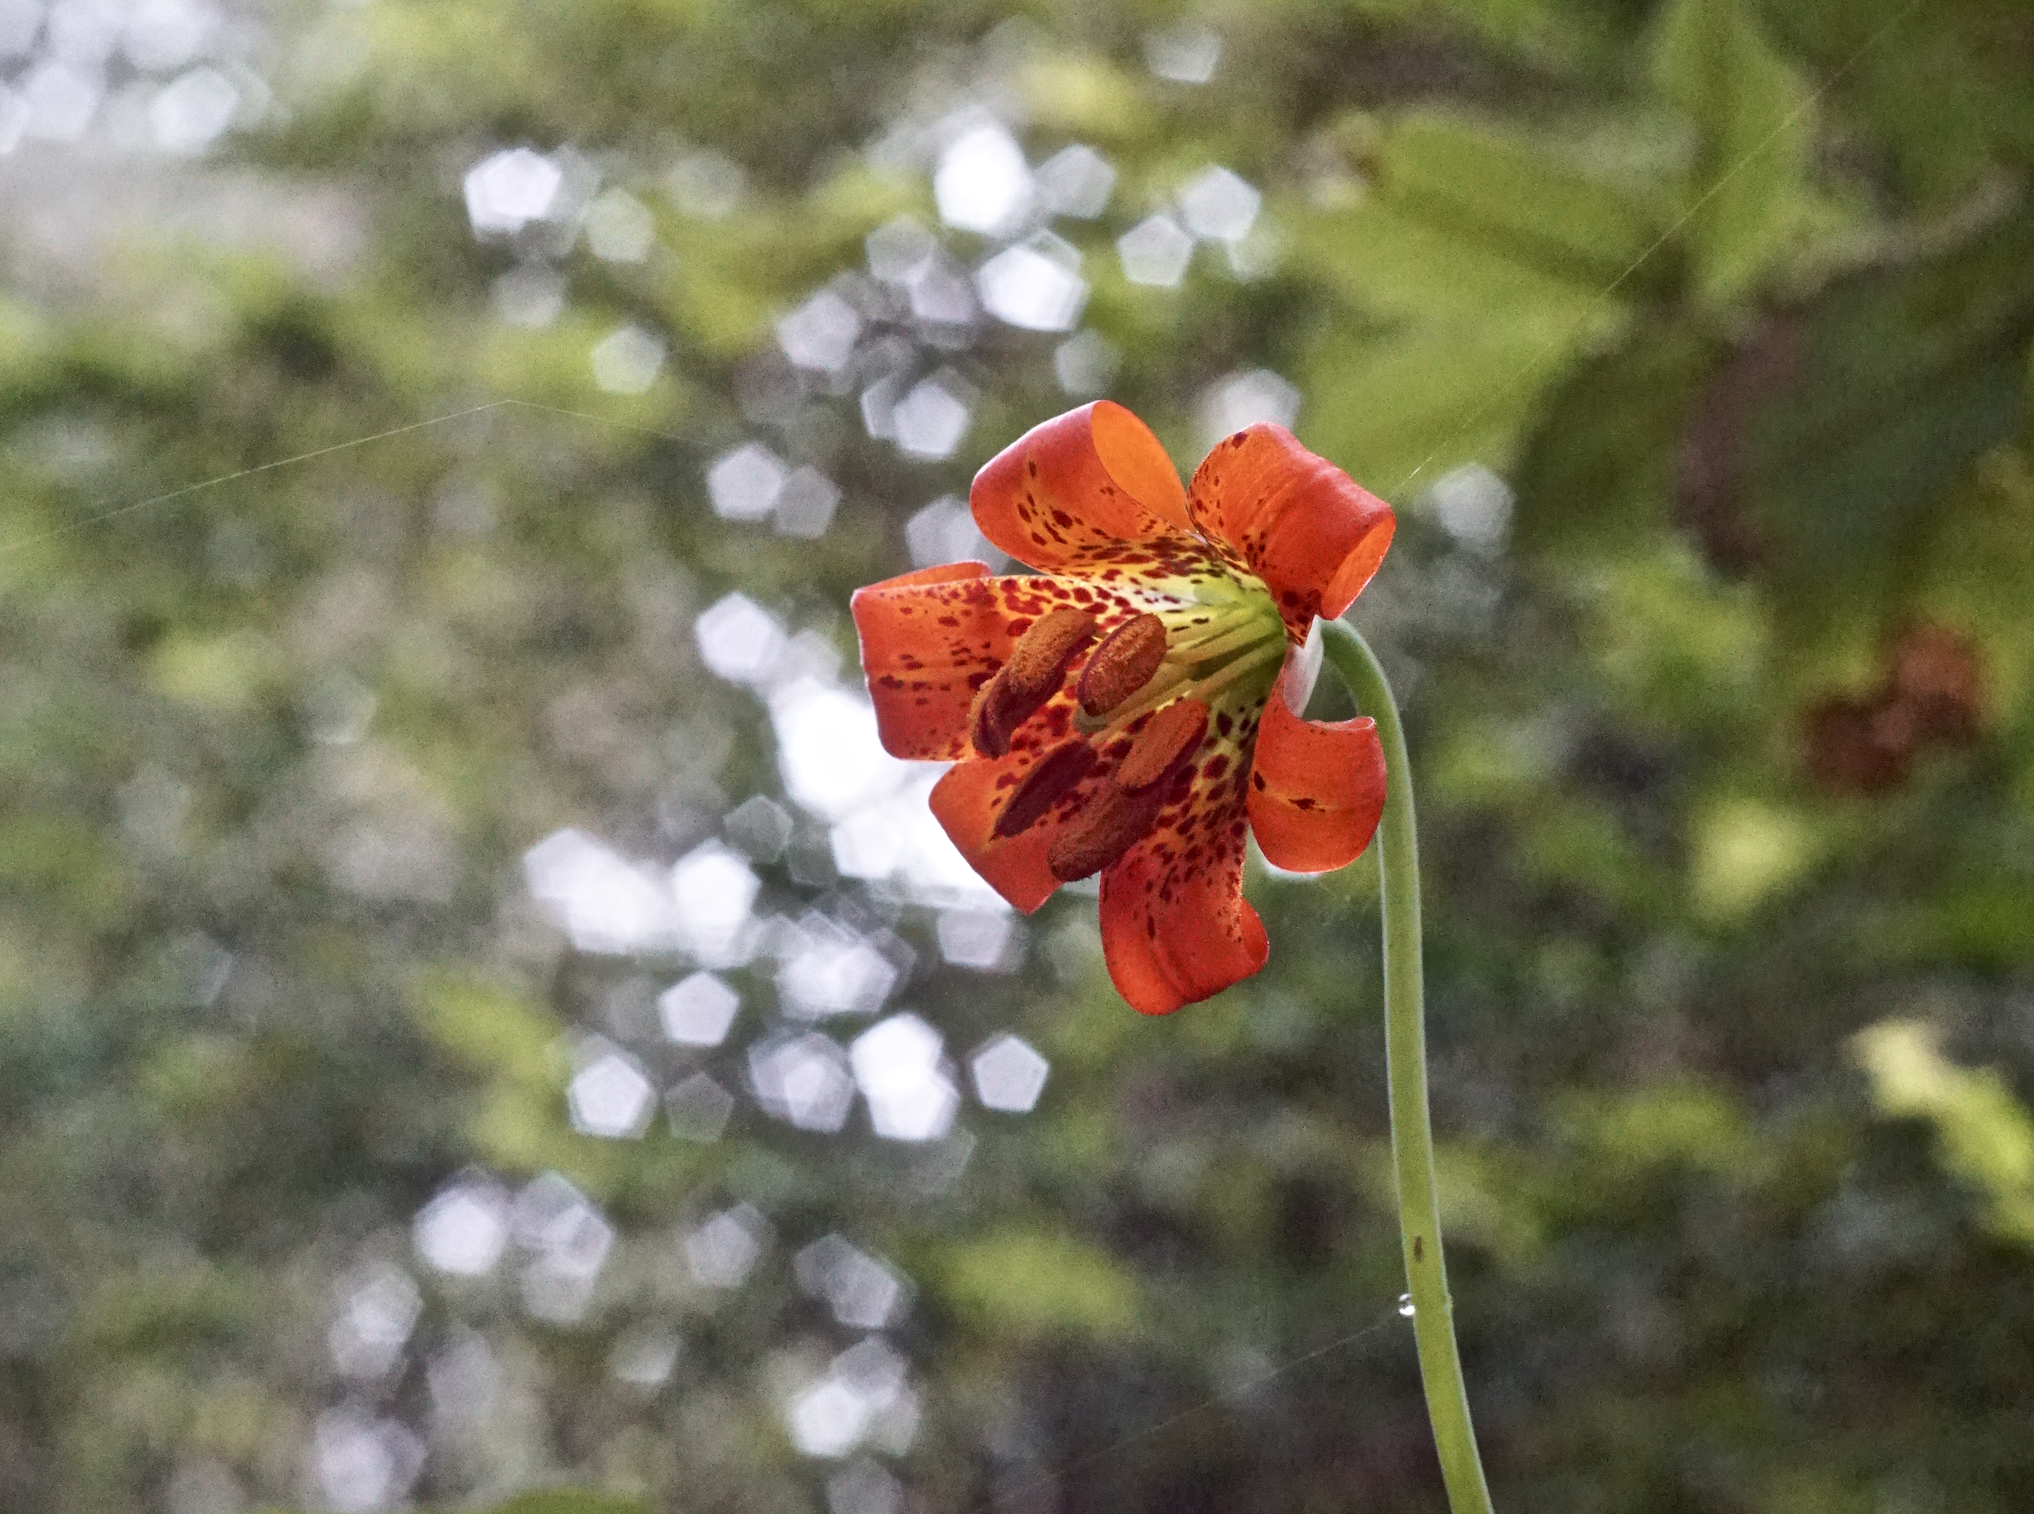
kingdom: Plantae
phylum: Tracheophyta
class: Liliopsida
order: Liliales
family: Liliaceae
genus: Lilium
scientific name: Lilium maritimum
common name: Coastal lily
